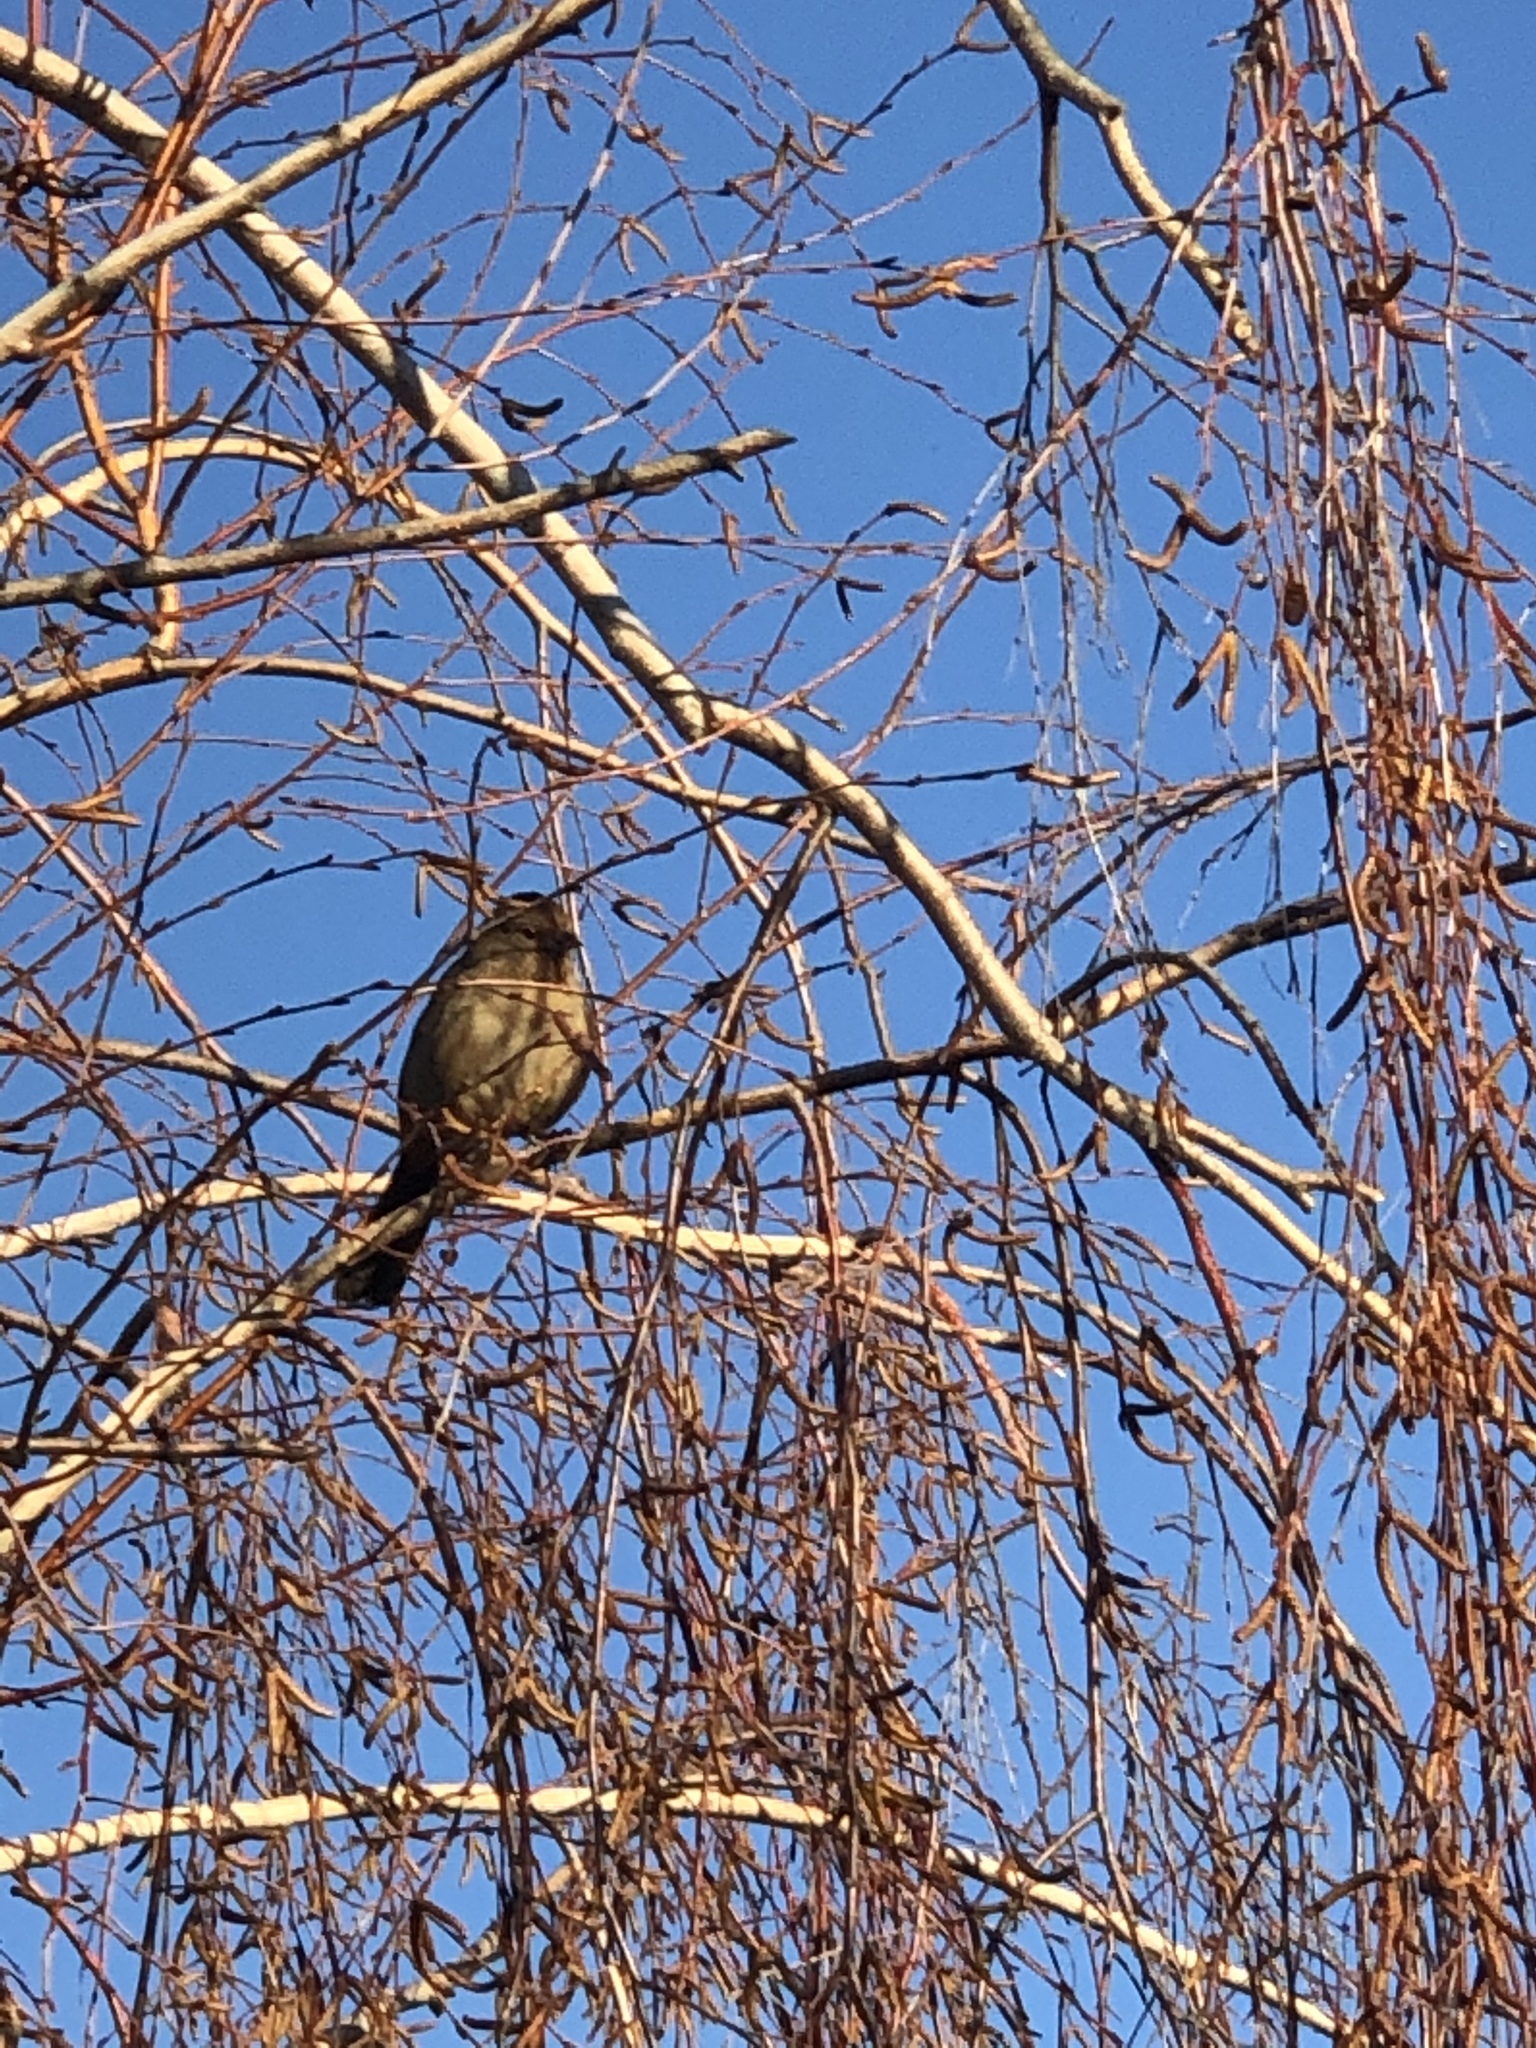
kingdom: Animalia
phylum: Chordata
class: Aves
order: Passeriformes
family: Passerellidae
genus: Melozone
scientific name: Melozone crissalis
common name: California towhee
